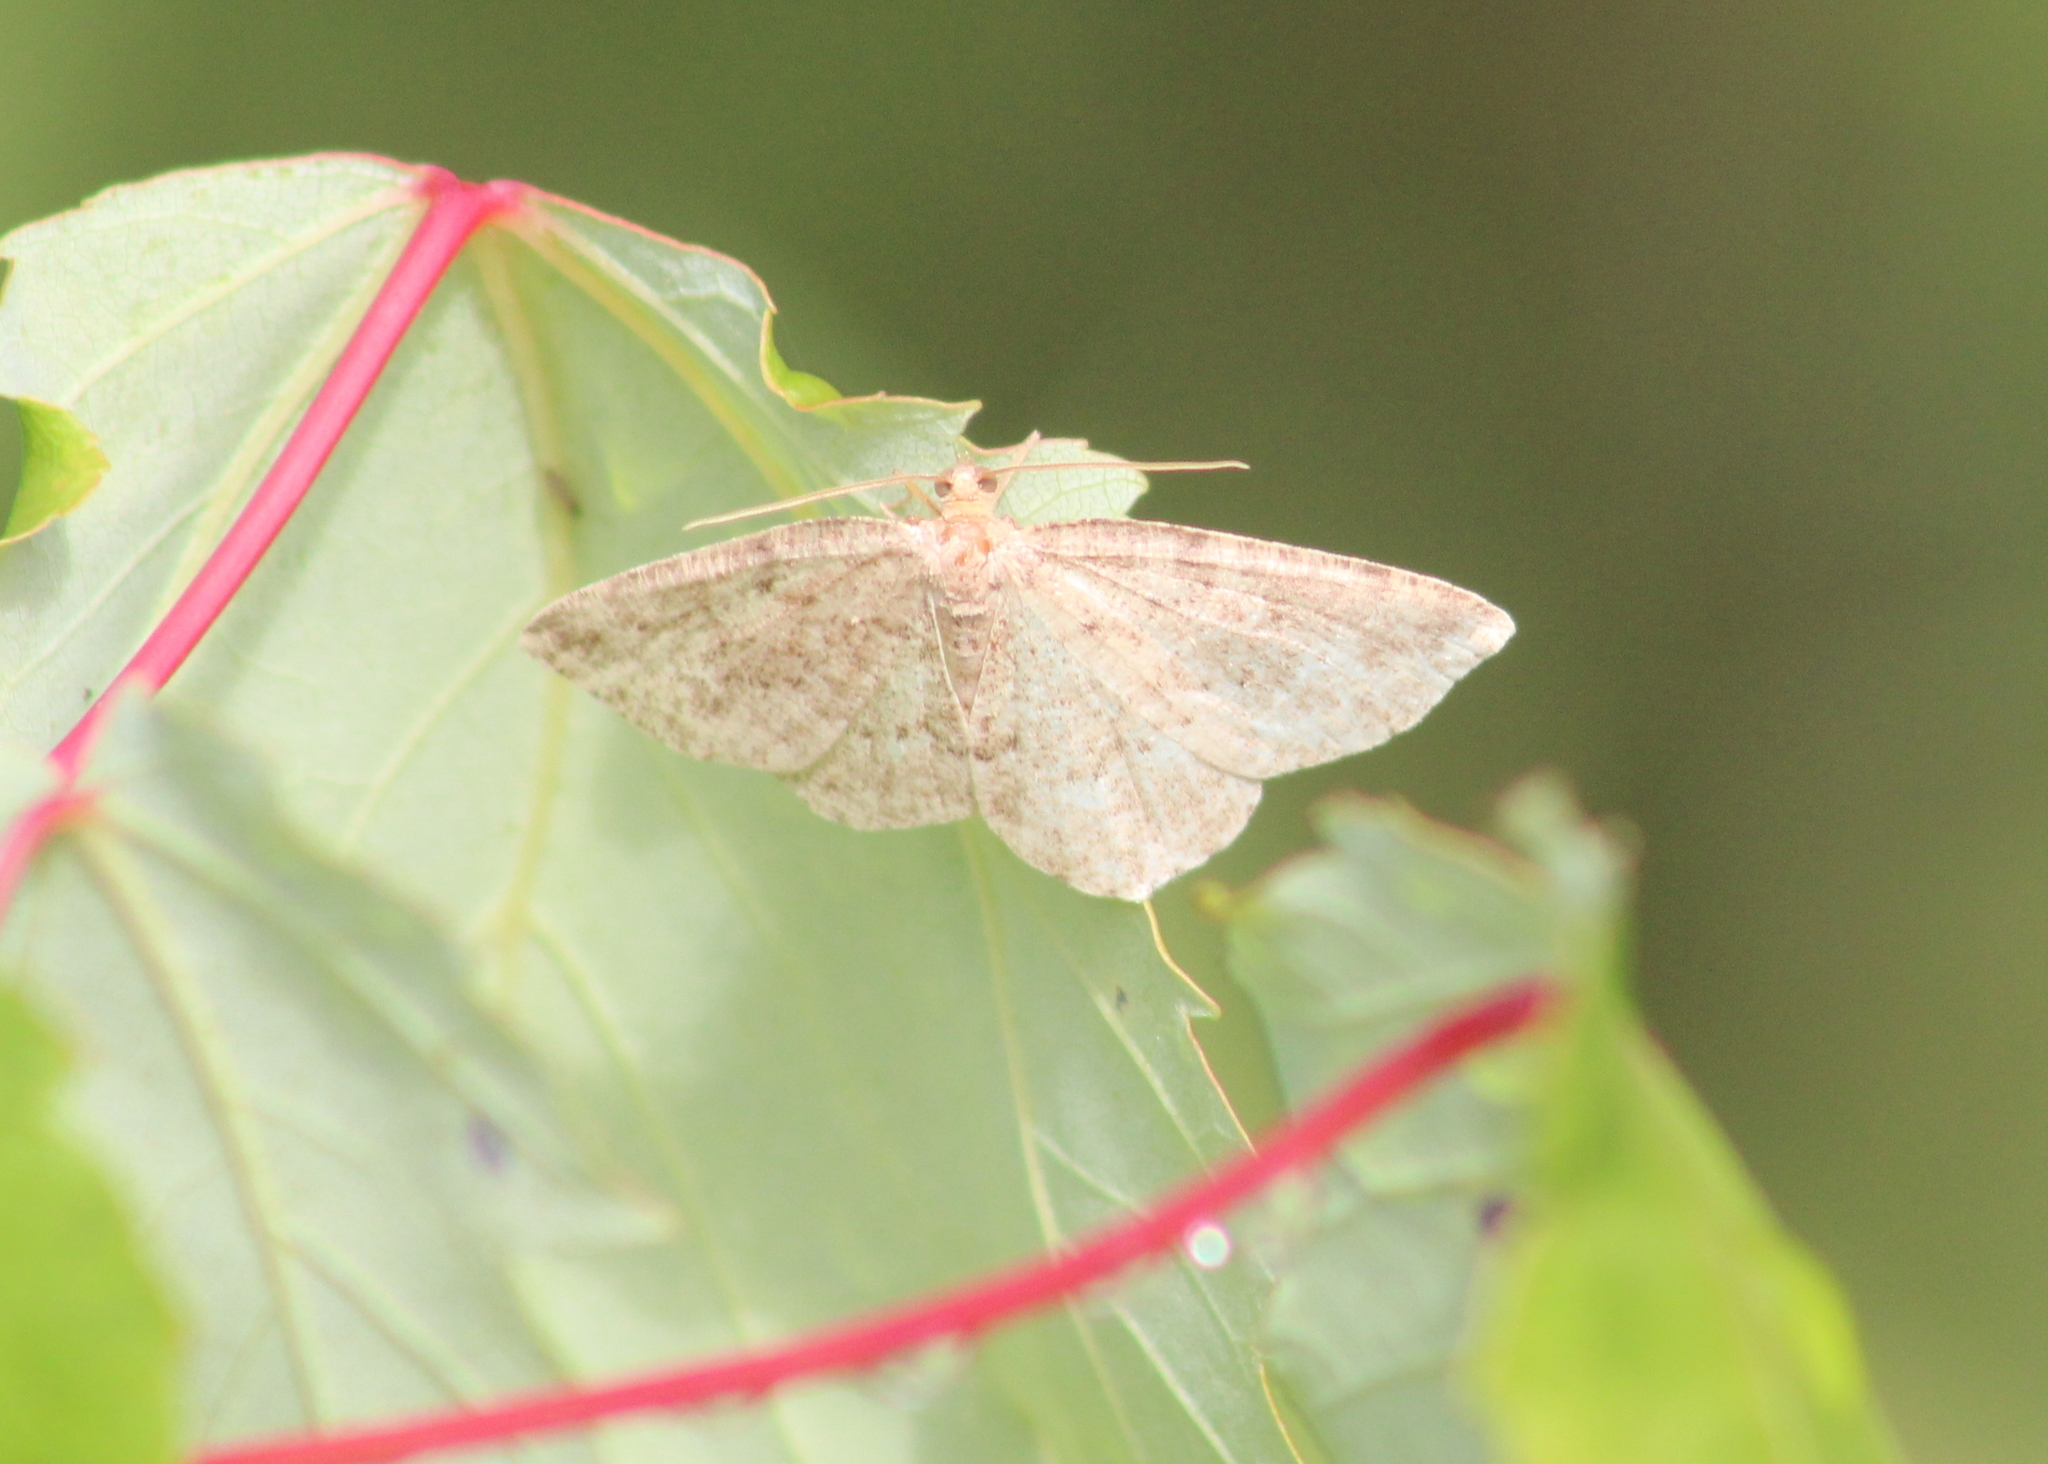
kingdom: Animalia
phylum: Arthropoda
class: Insecta
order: Lepidoptera
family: Geometridae
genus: Homochlodes
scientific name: Homochlodes fritillaria
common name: Pale homochlodes
